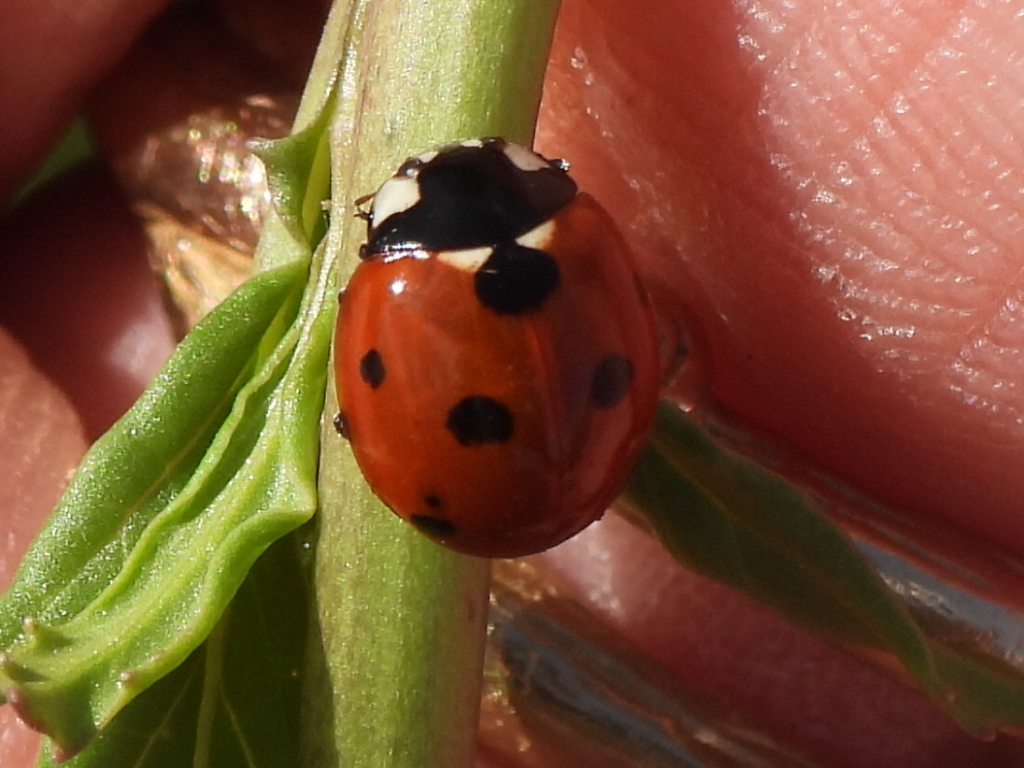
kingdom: Animalia
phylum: Arthropoda
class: Insecta
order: Coleoptera
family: Coccinellidae
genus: Coccinella
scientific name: Coccinella septempunctata
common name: Sevenspotted lady beetle
